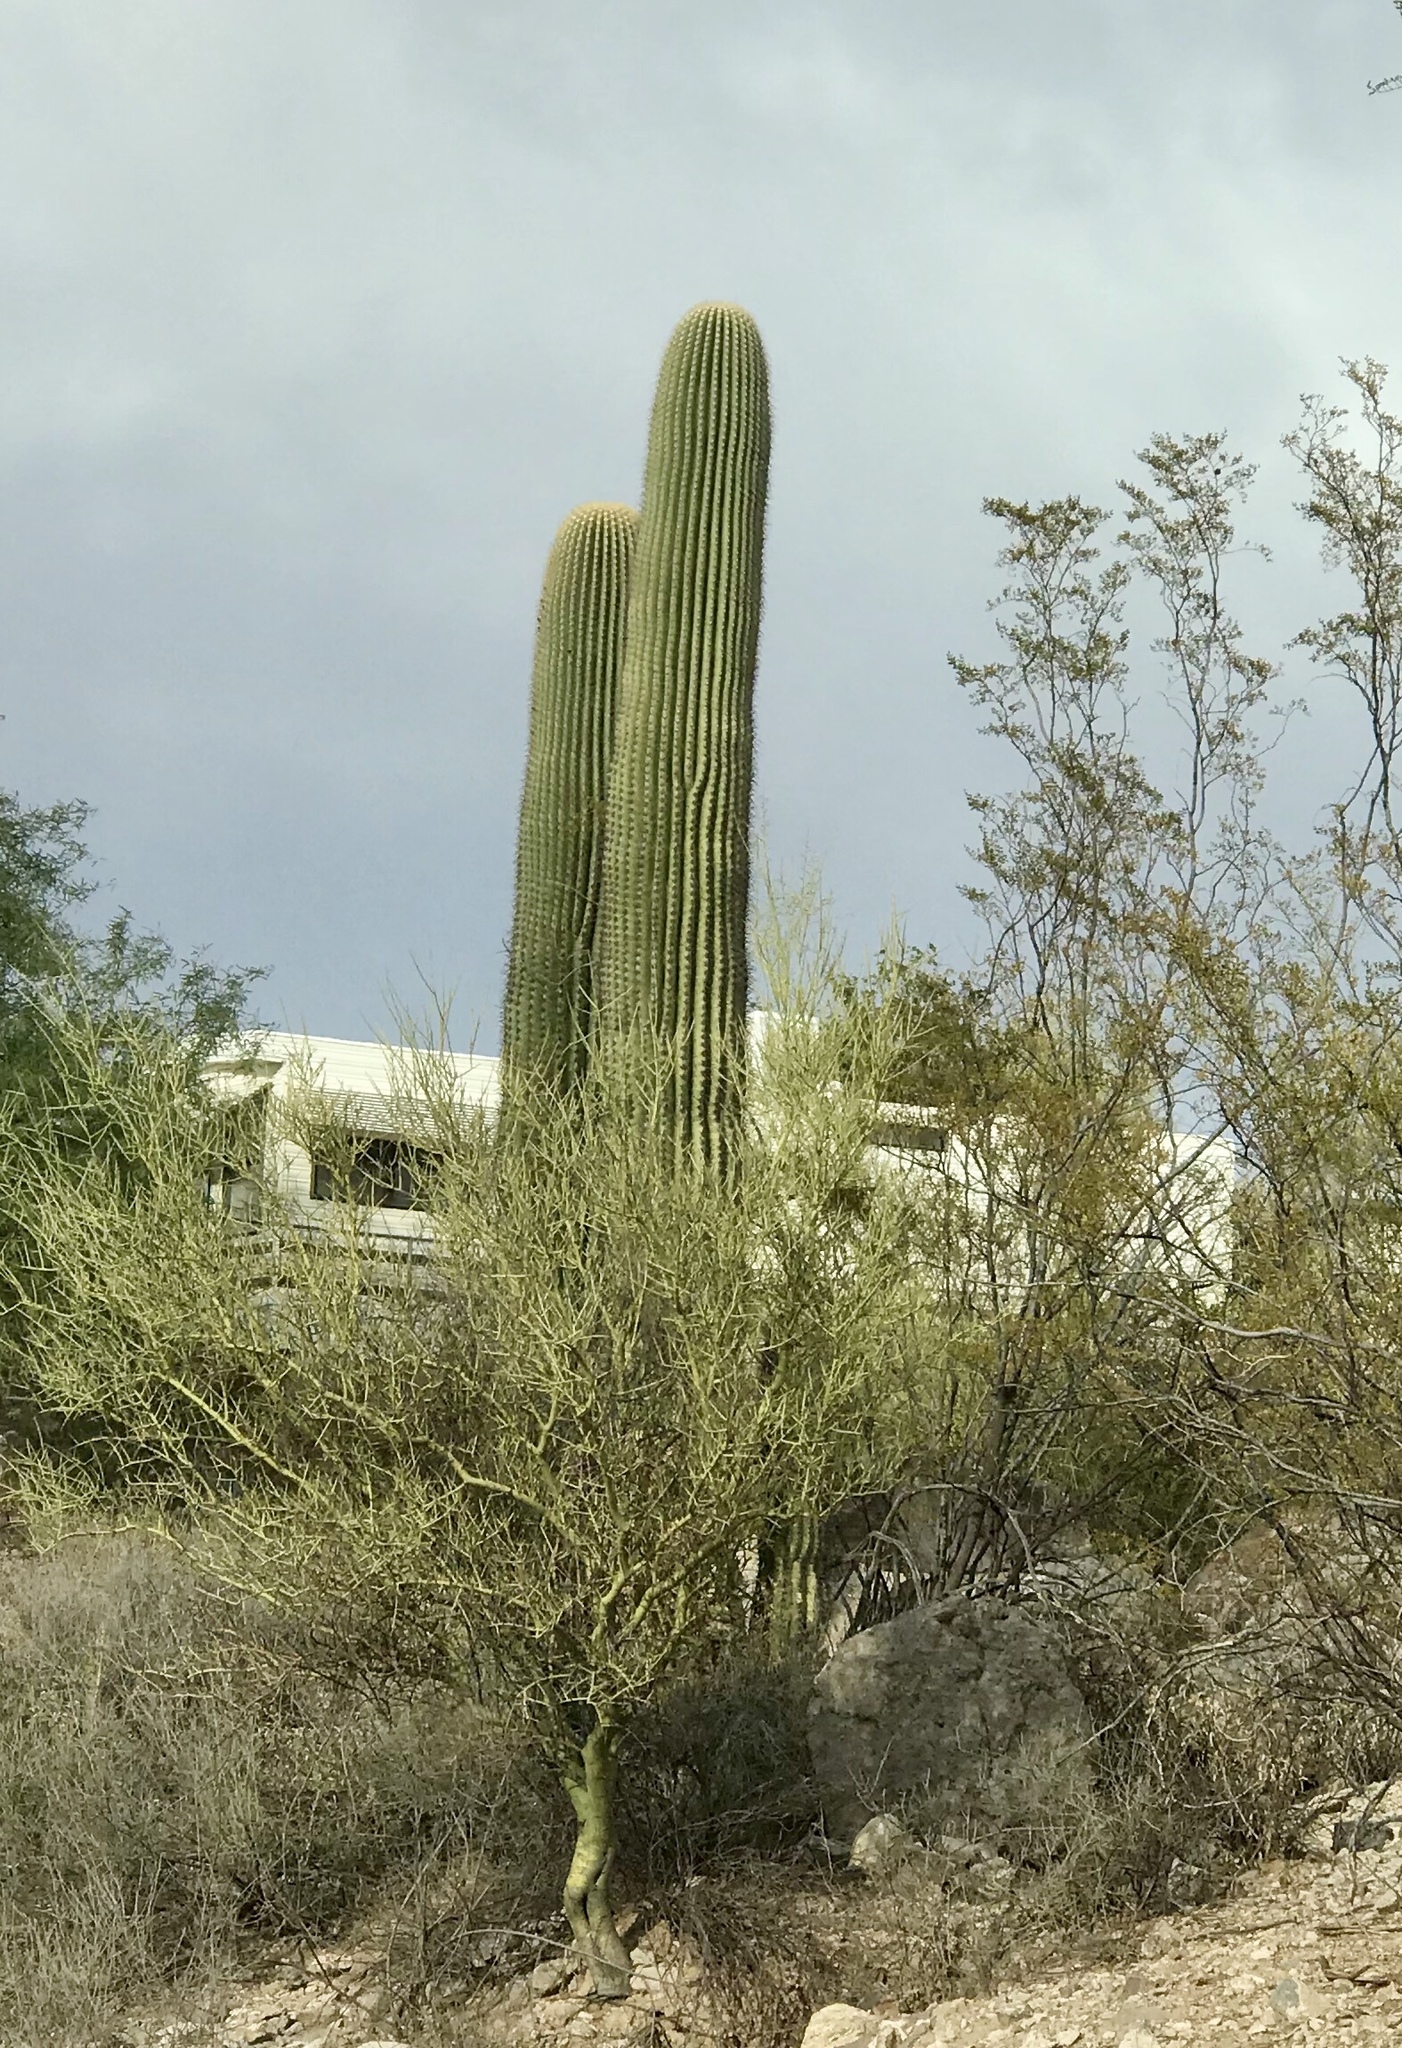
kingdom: Plantae
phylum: Tracheophyta
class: Magnoliopsida
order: Caryophyllales
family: Cactaceae
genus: Carnegiea
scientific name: Carnegiea gigantea
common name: Saguaro
